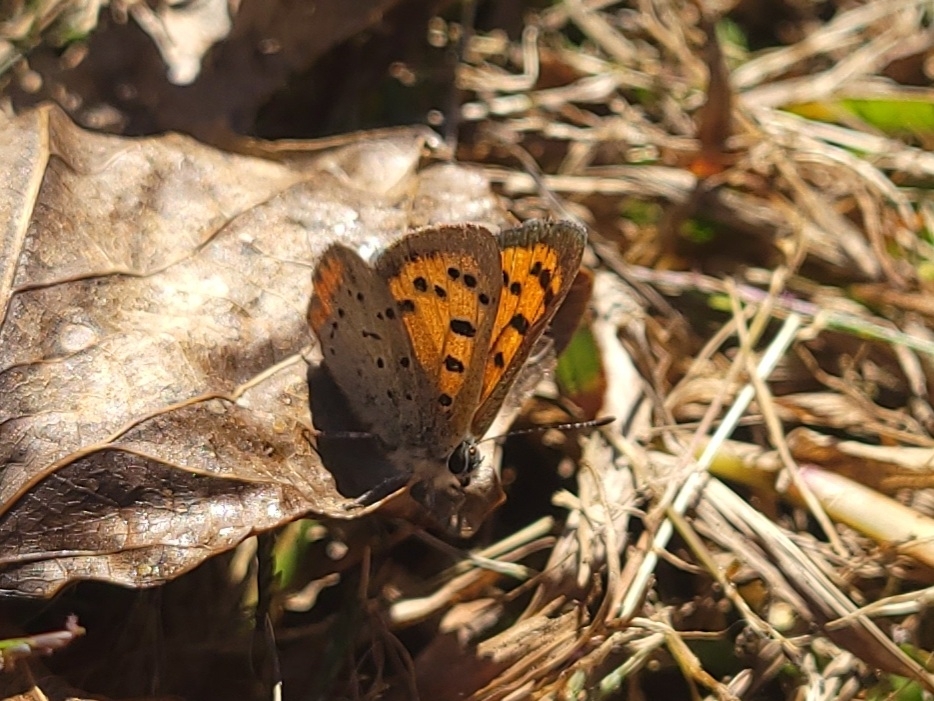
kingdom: Animalia
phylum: Arthropoda
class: Insecta
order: Lepidoptera
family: Lycaenidae
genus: Lycaena
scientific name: Lycaena hypophlaeas
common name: American copper
